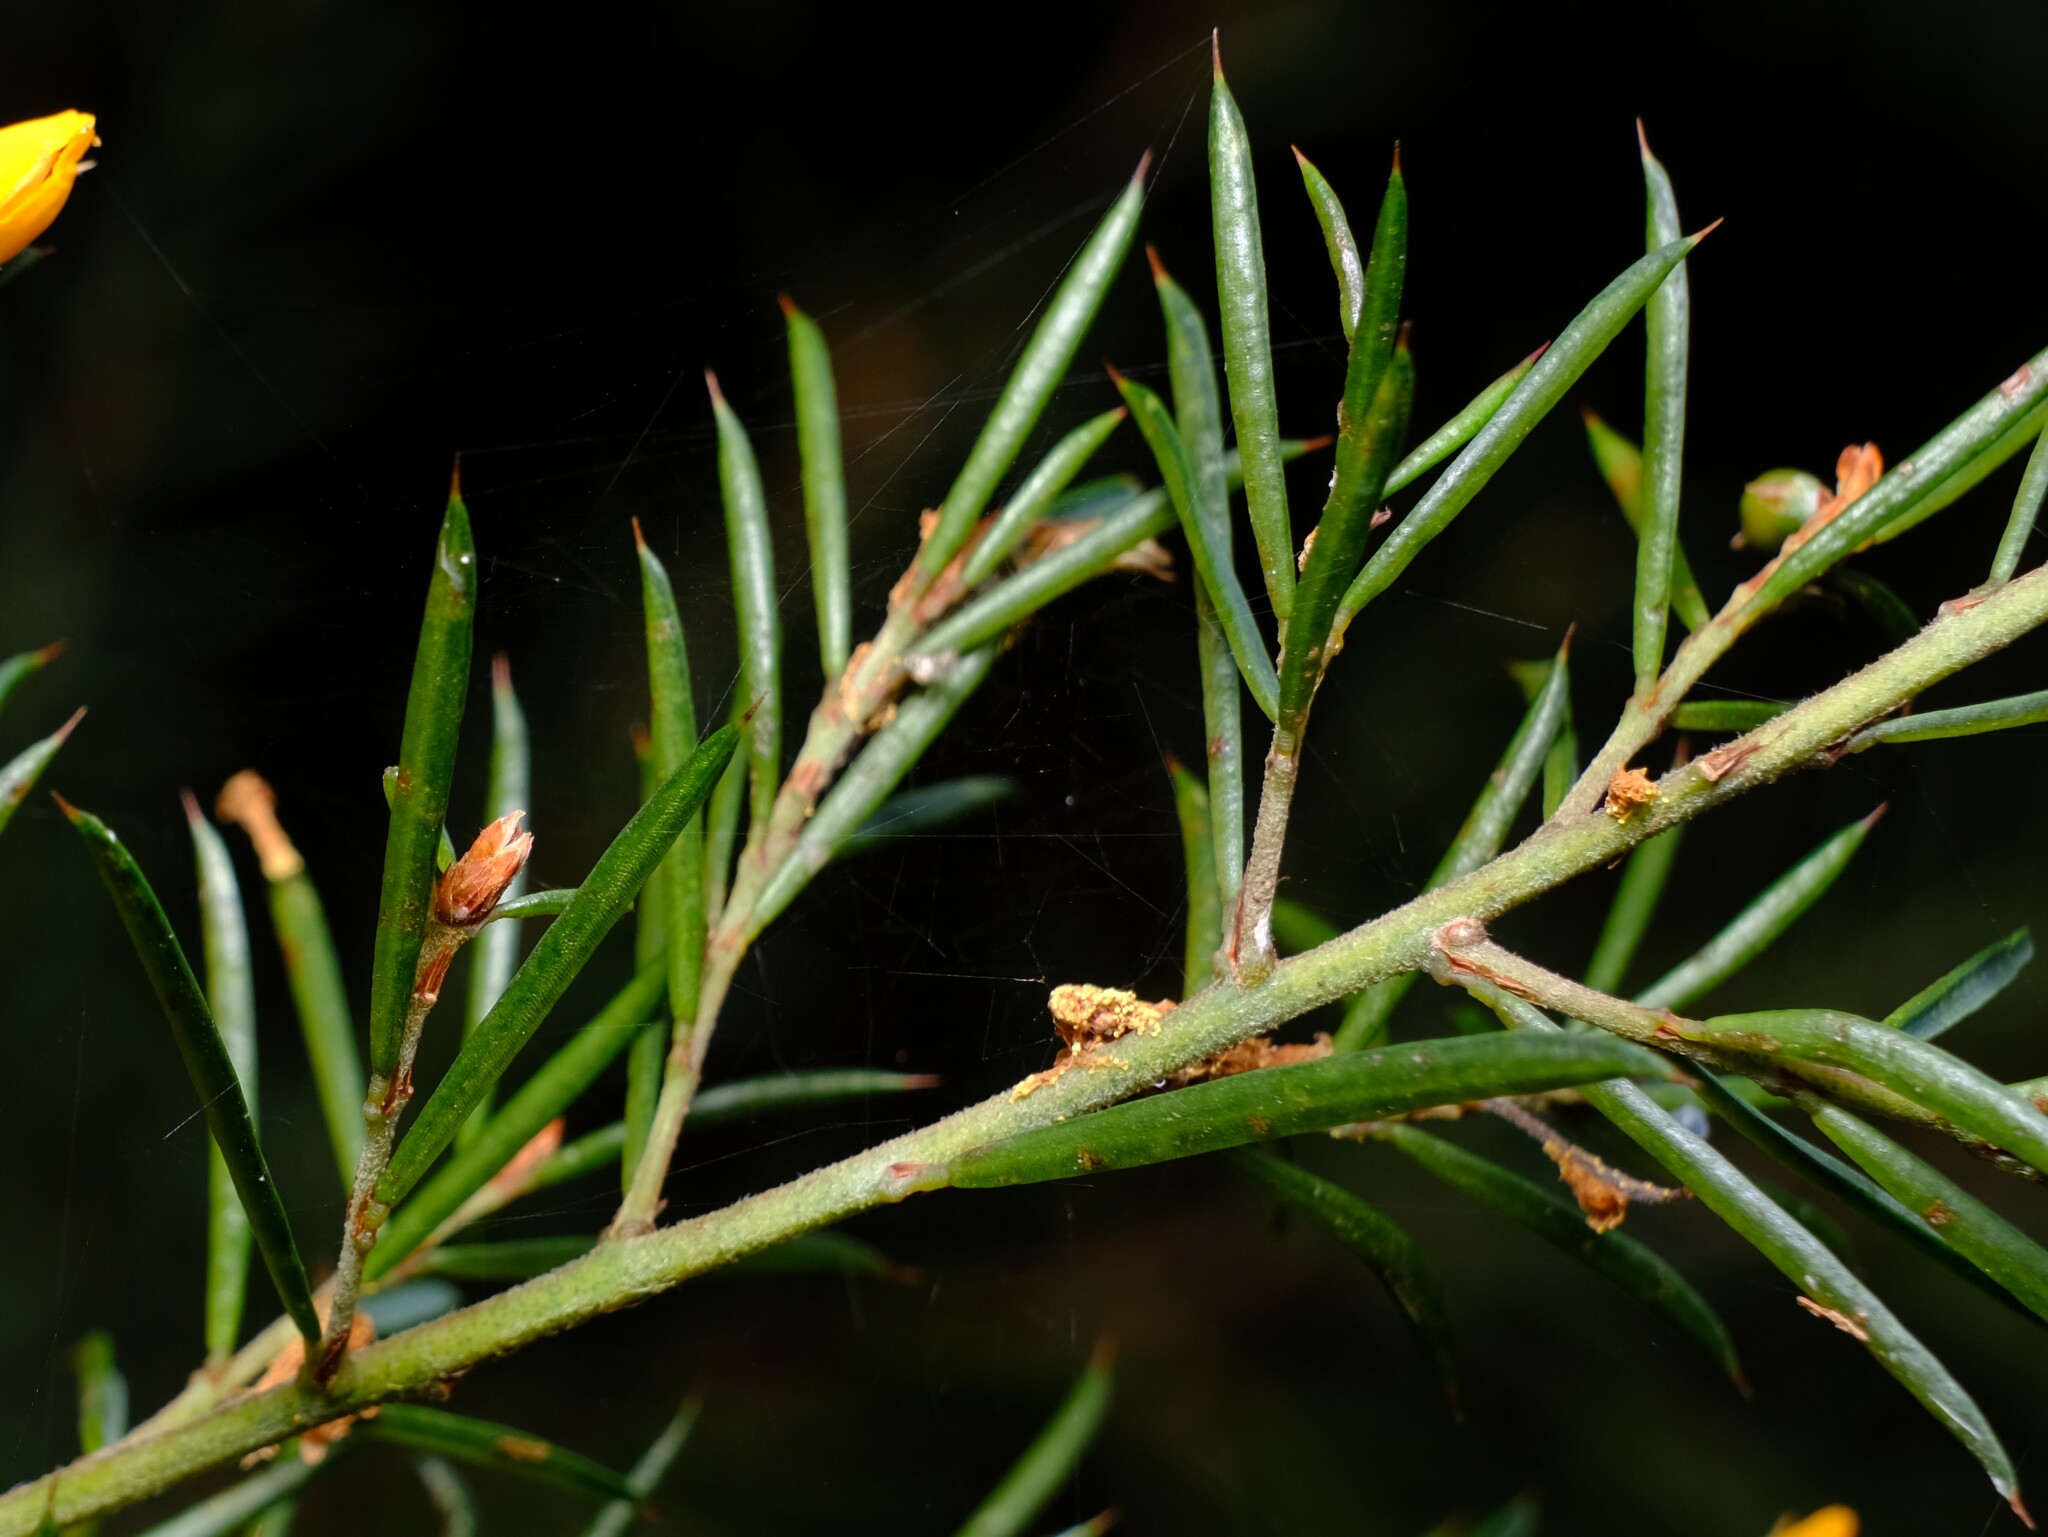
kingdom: Plantae
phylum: Tracheophyta
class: Magnoliopsida
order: Fabales
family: Fabaceae
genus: Pultenaea
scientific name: Pultenaea juniperina
